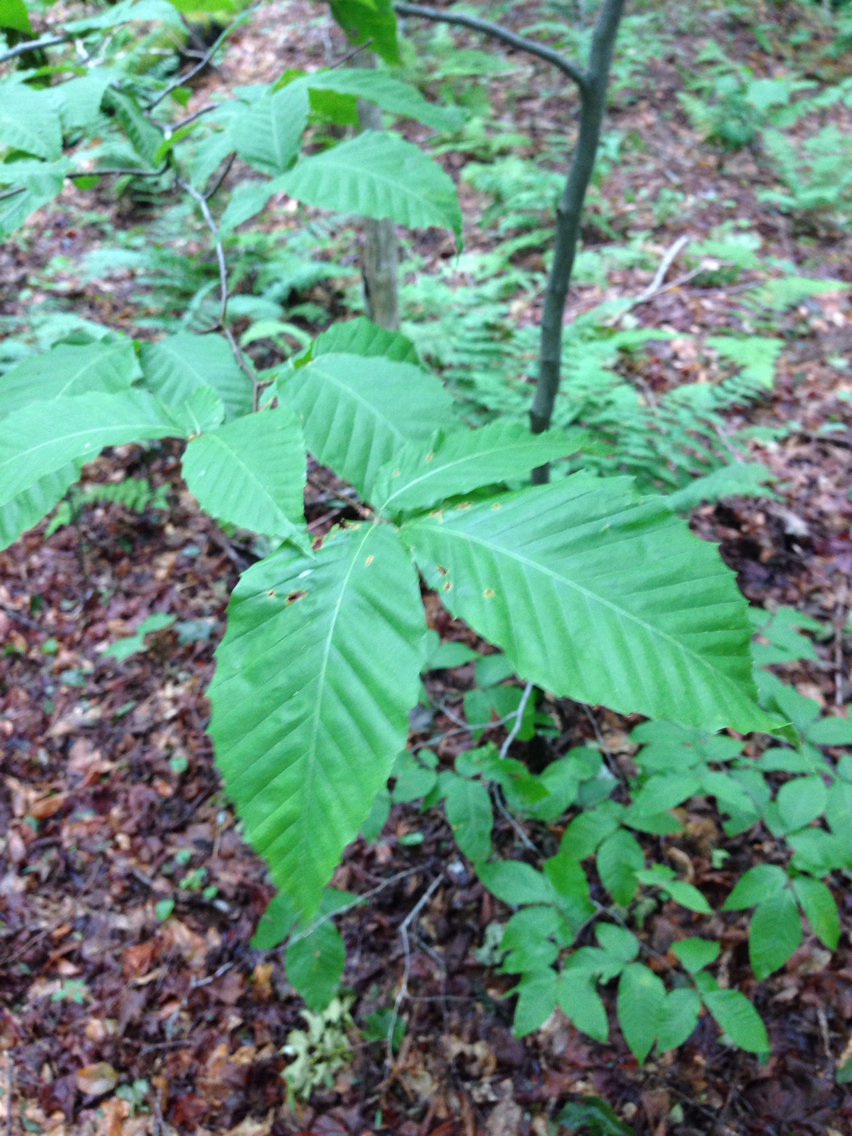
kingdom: Plantae
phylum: Tracheophyta
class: Magnoliopsida
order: Fagales
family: Fagaceae
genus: Fagus
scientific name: Fagus grandifolia
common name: American beech
